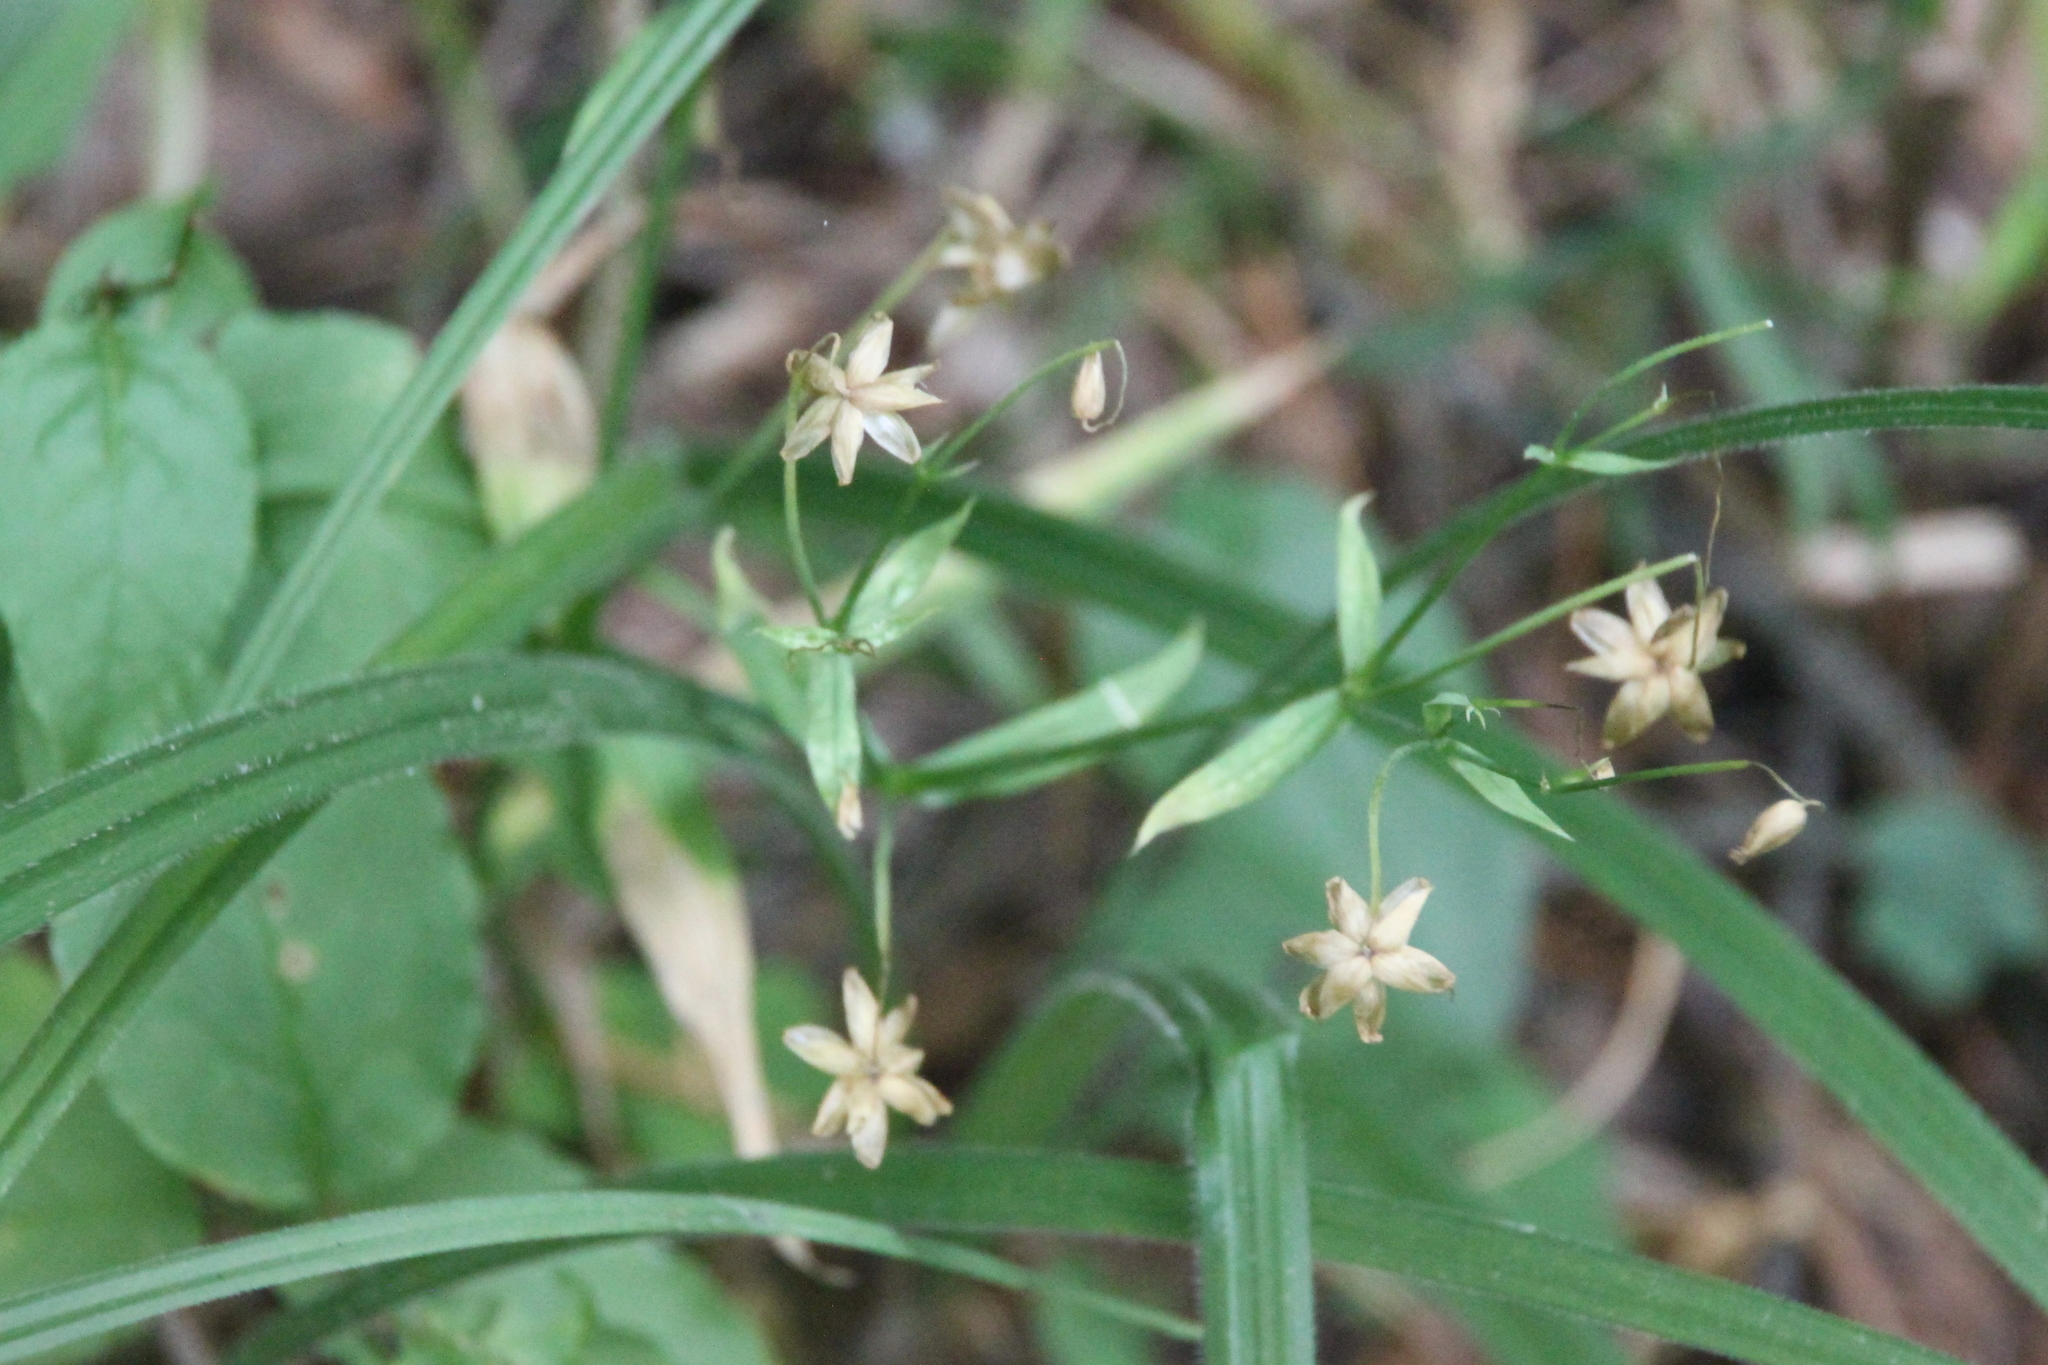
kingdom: Plantae
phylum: Tracheophyta
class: Magnoliopsida
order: Caryophyllales
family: Caryophyllaceae
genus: Rabelera
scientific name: Rabelera holostea
